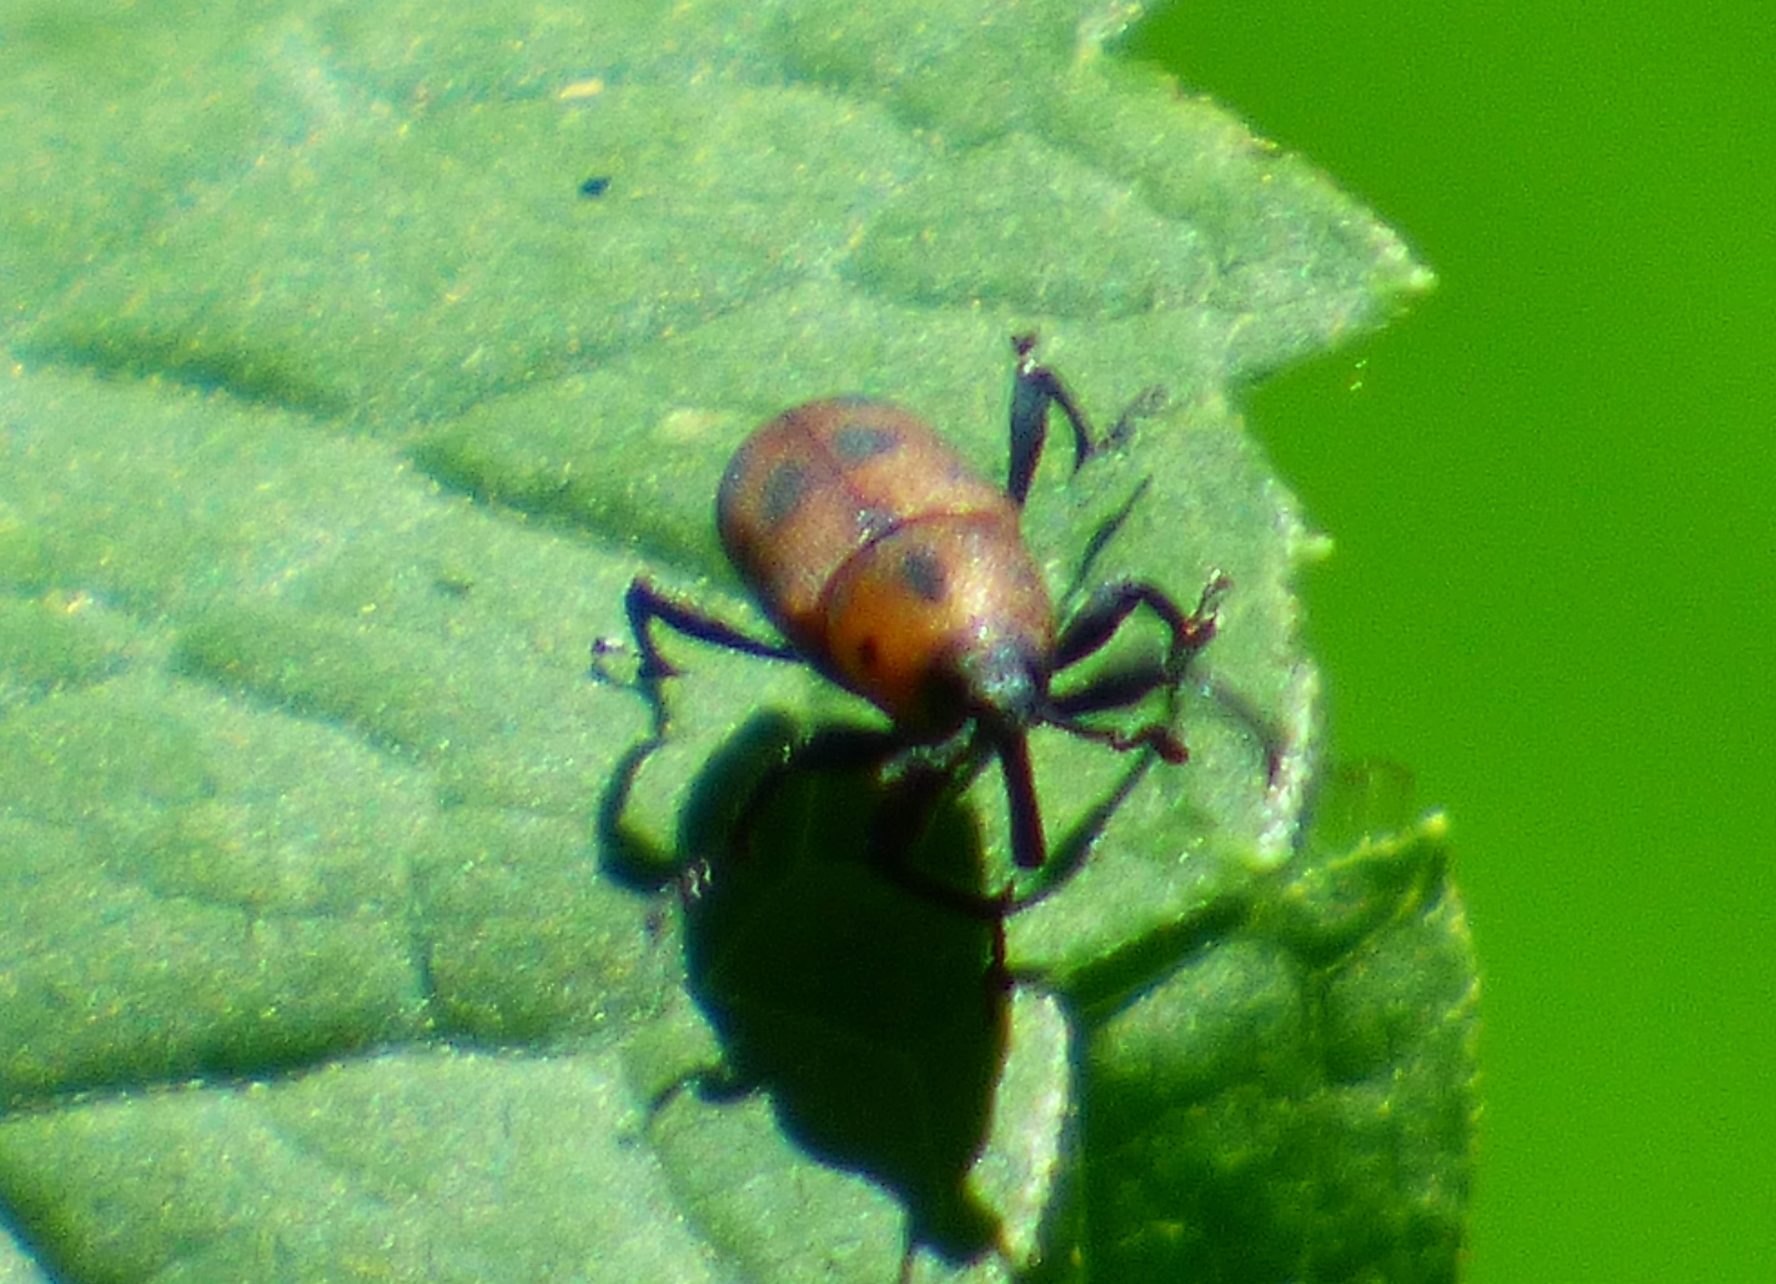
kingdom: Animalia
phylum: Arthropoda
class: Insecta
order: Coleoptera
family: Dryophthoridae
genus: Rhodobaenus
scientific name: Rhodobaenus quinquepunctatus
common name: Cocklebur weevil
